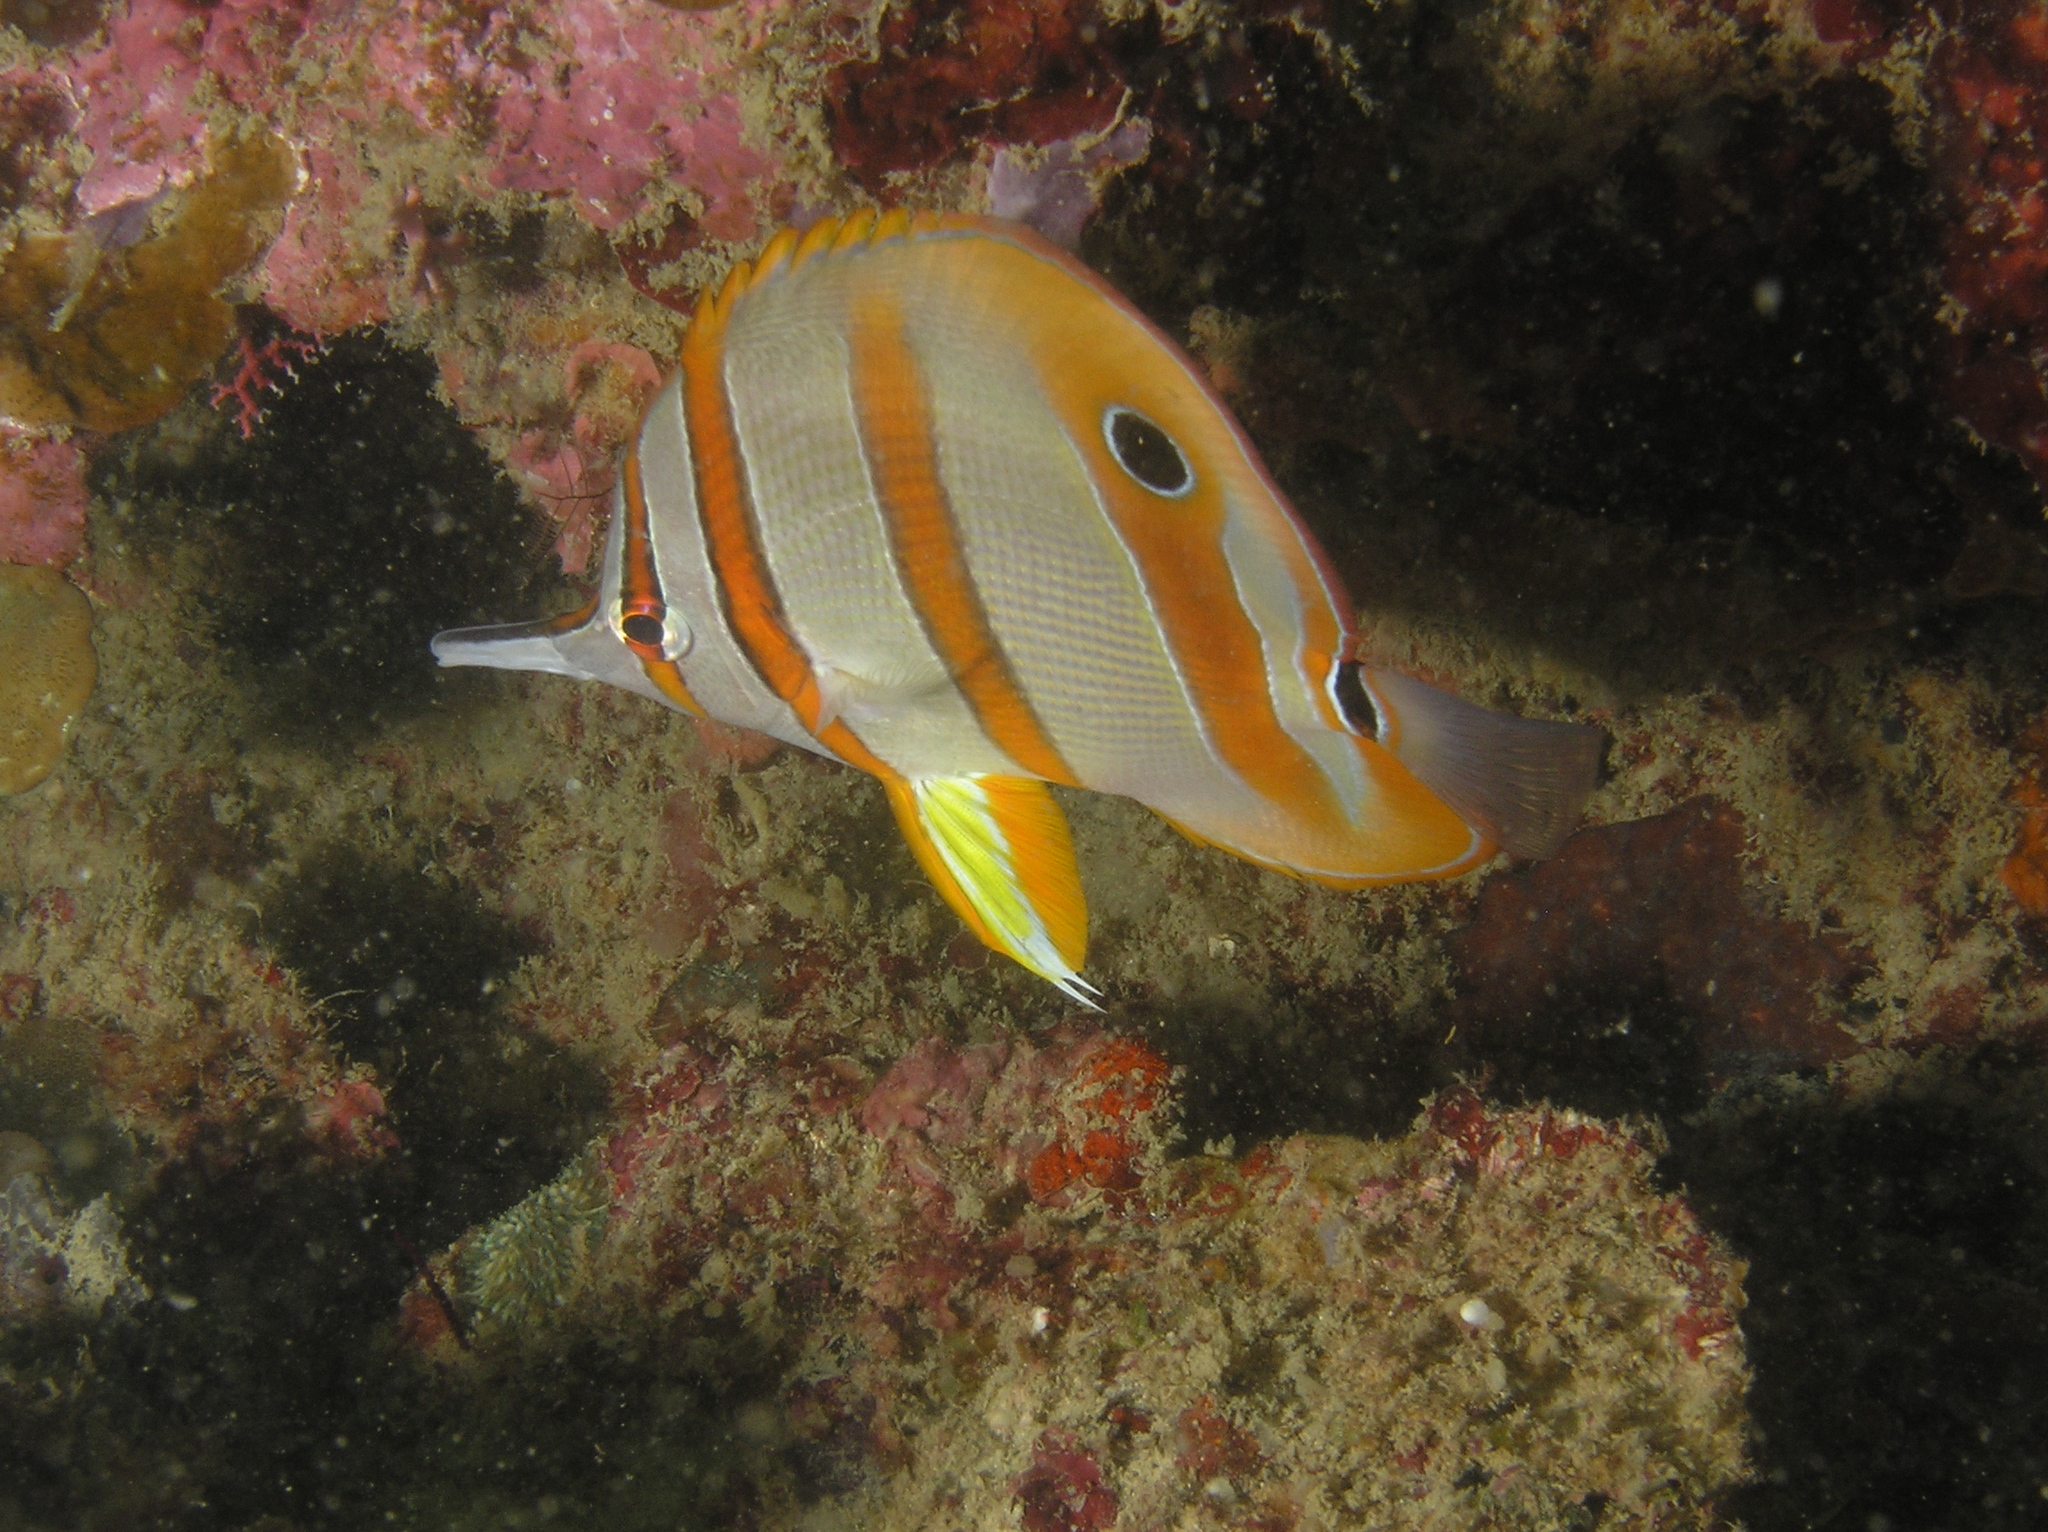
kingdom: Animalia
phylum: Chordata
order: Perciformes
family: Chaetodontidae
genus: Chelmon
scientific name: Chelmon rostratus
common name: Beaked butterflyfish
